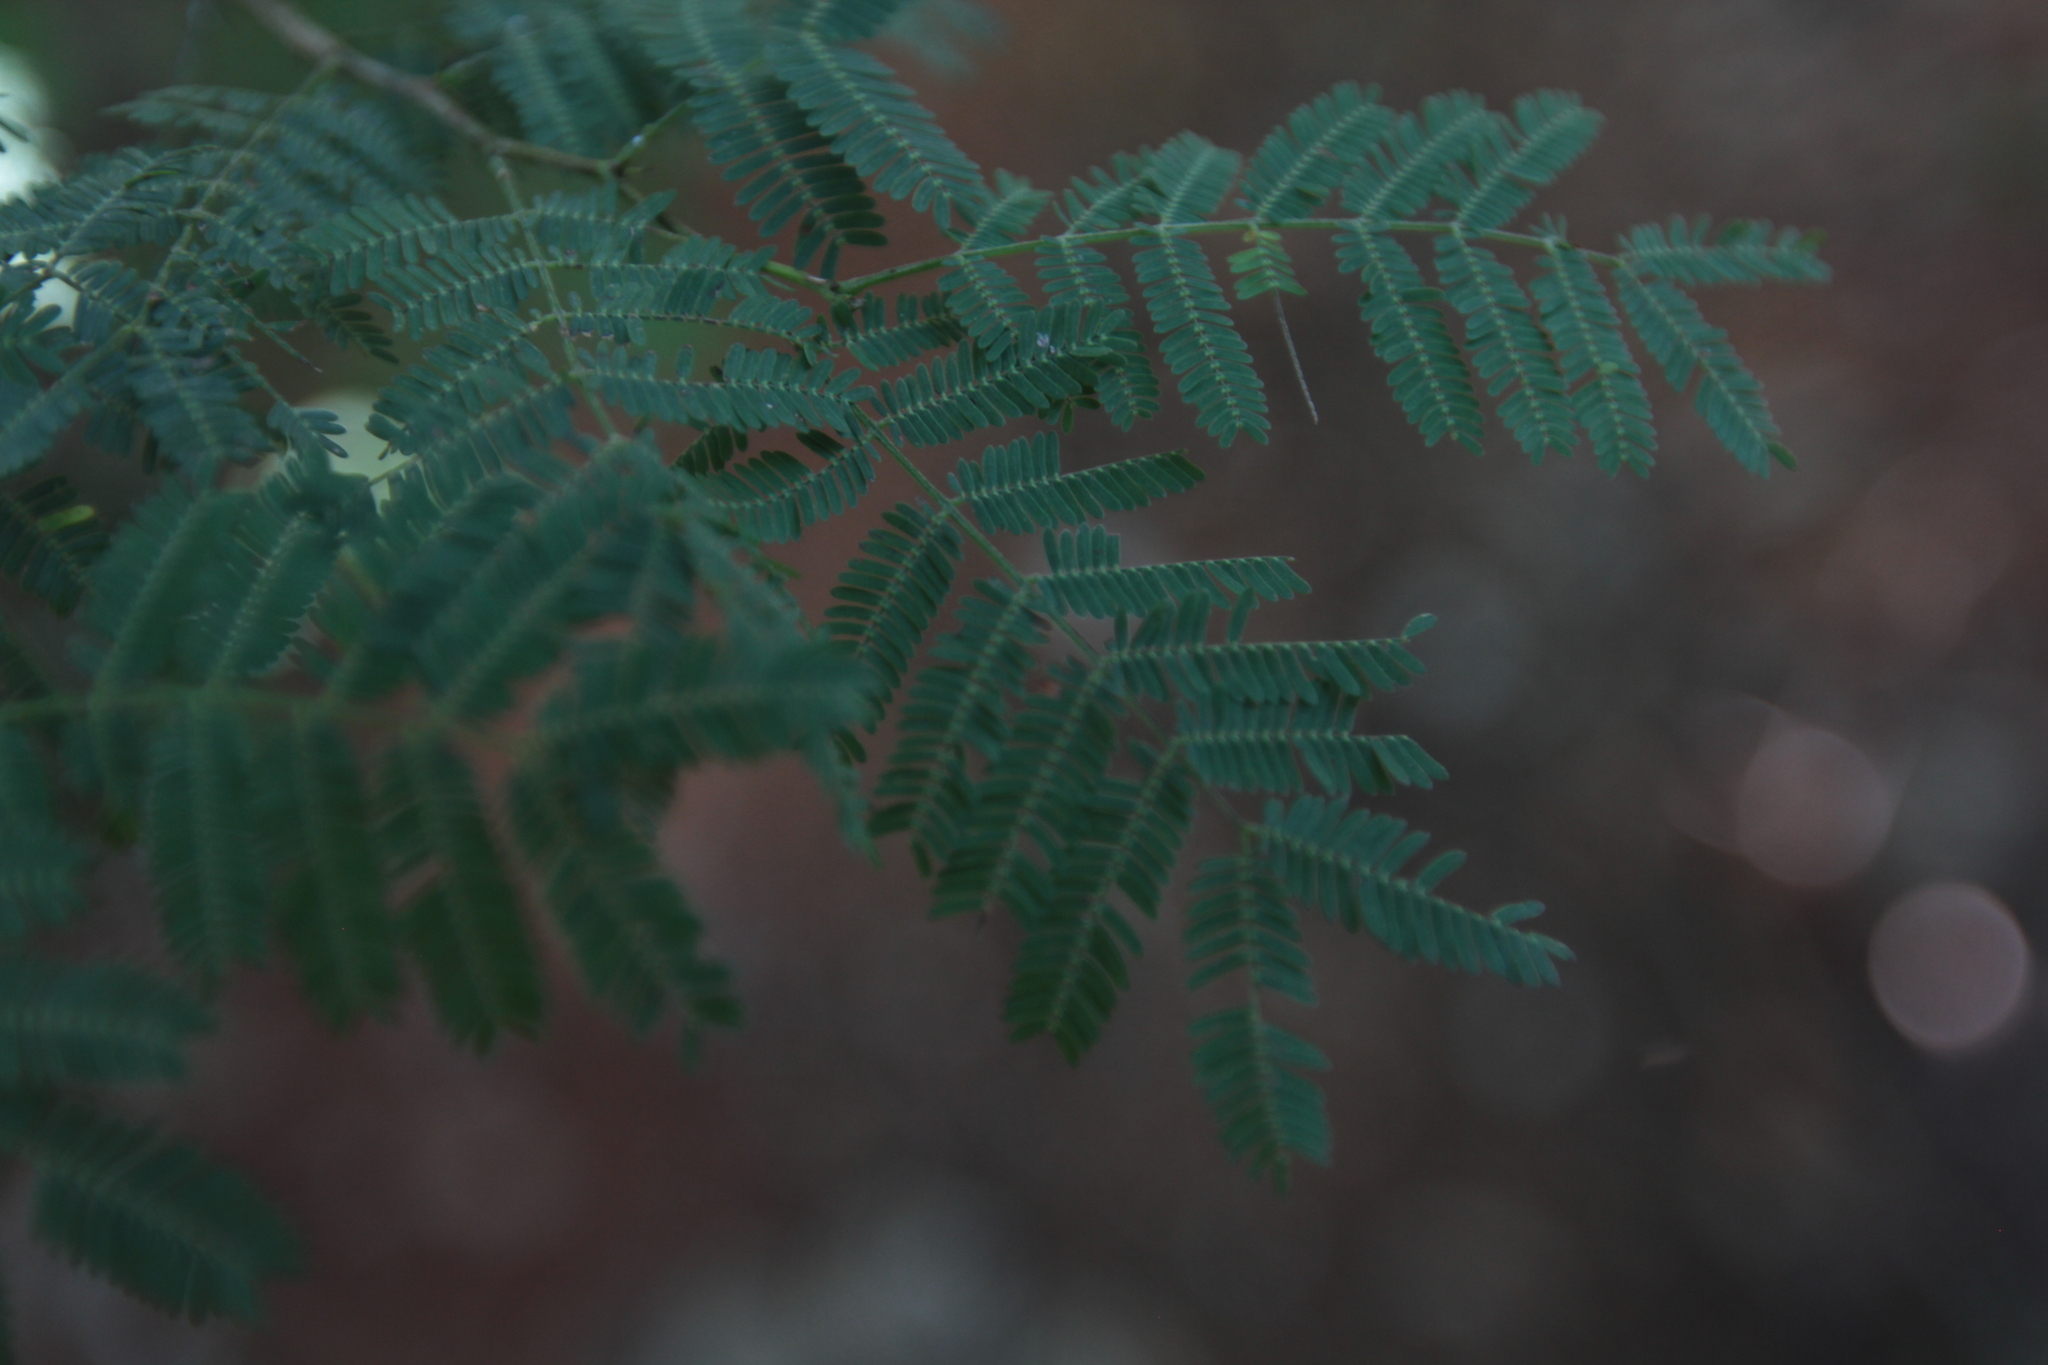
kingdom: Plantae
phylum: Tracheophyta
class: Magnoliopsida
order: Fabales
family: Fabaceae
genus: Vachellia
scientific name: Vachellia macracantha
